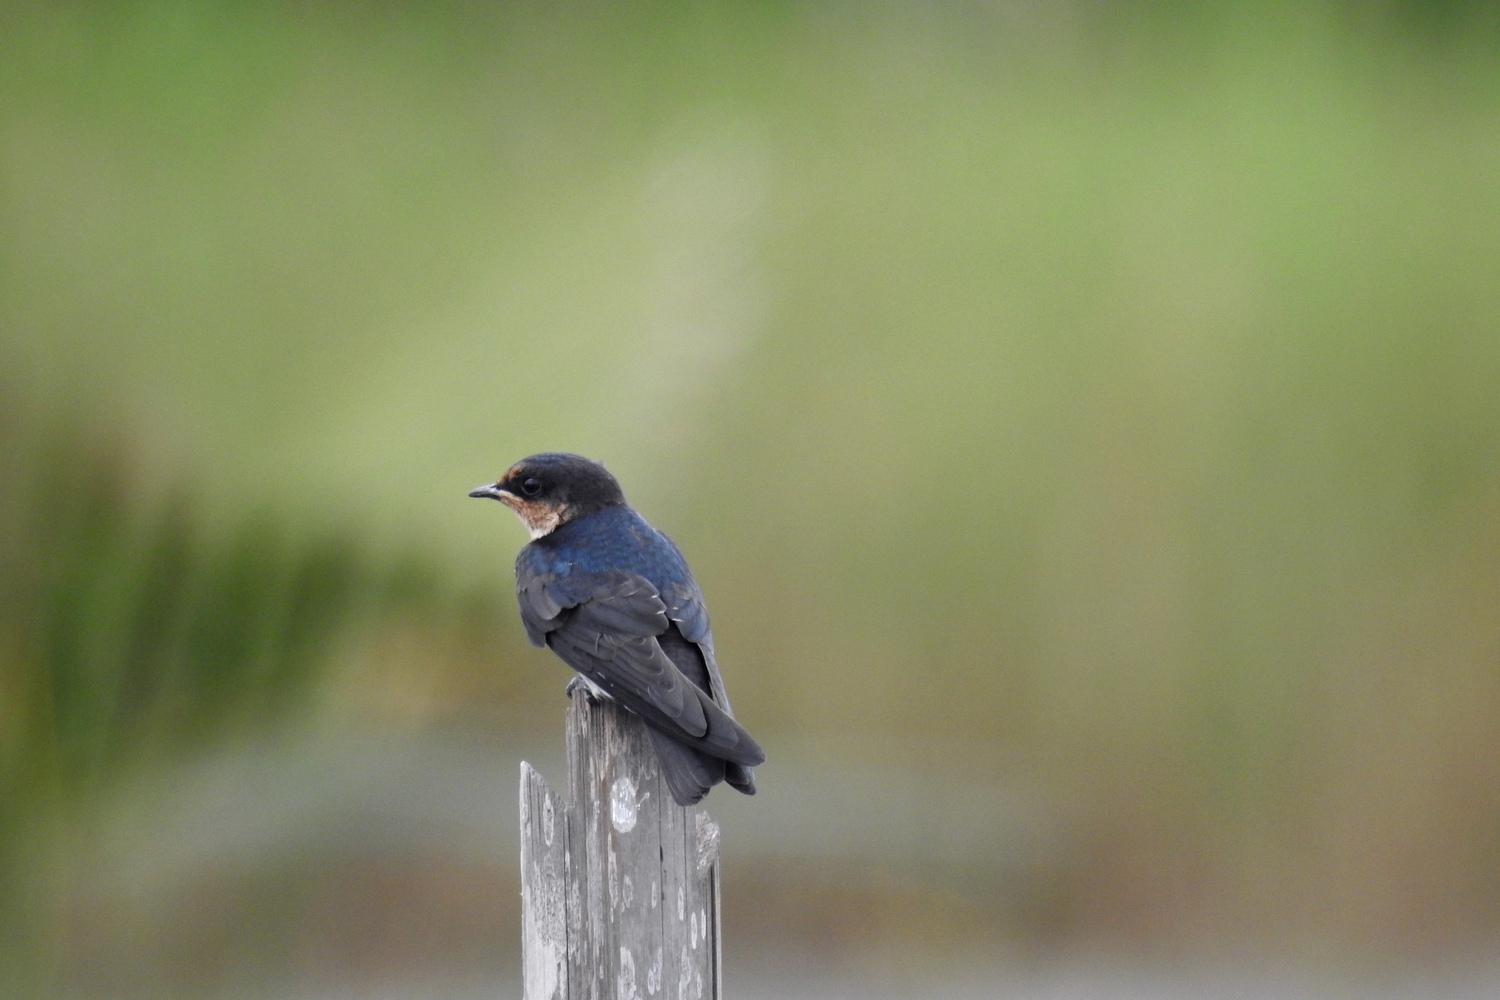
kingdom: Animalia
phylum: Chordata
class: Aves
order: Passeriformes
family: Hirundinidae
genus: Hirundo
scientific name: Hirundo tahitica
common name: Pacific swallow
